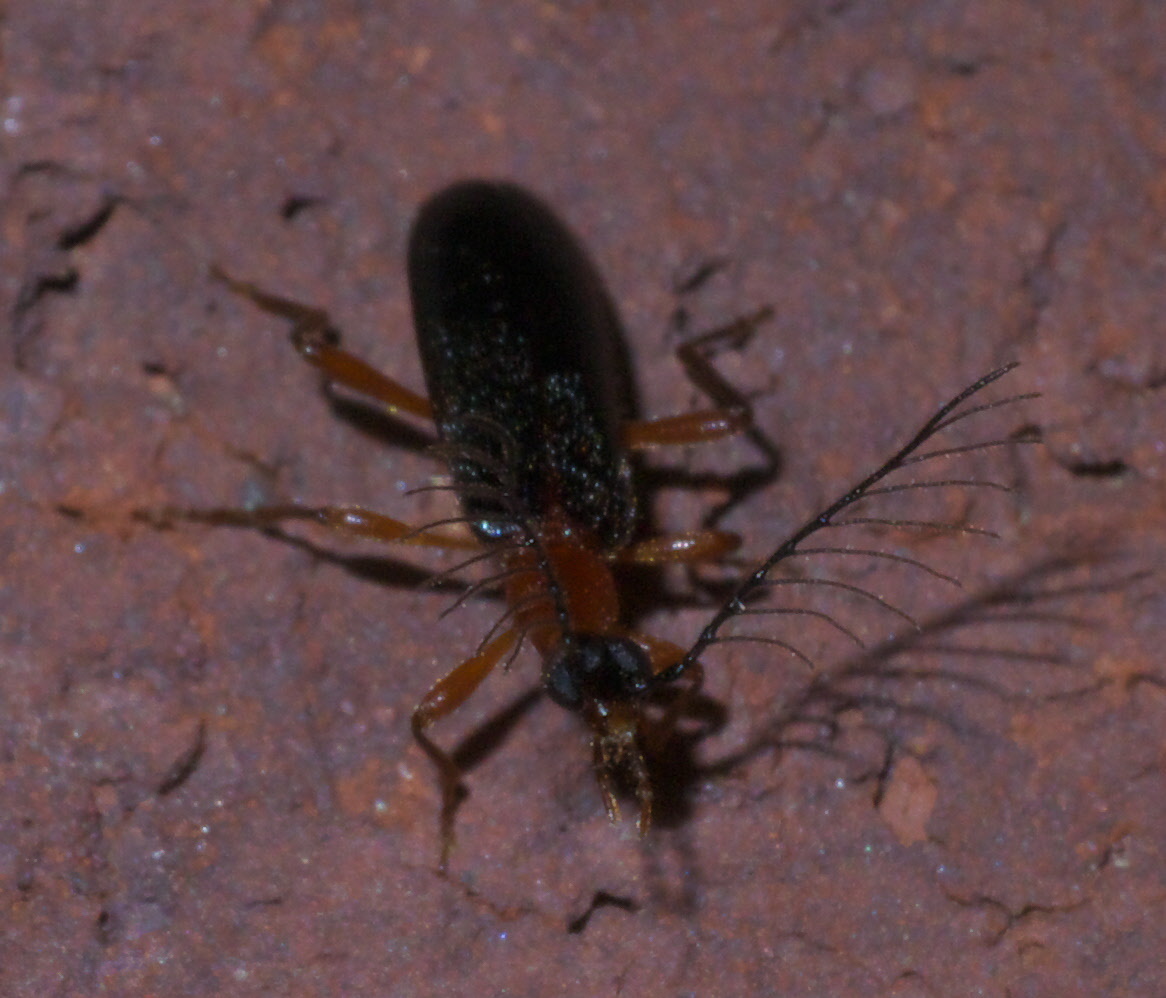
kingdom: Animalia
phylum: Arthropoda
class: Insecta
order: Coleoptera
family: Pyrochroidae
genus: Dendroides
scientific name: Dendroides canadensis
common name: Canada fire-colored beetle
